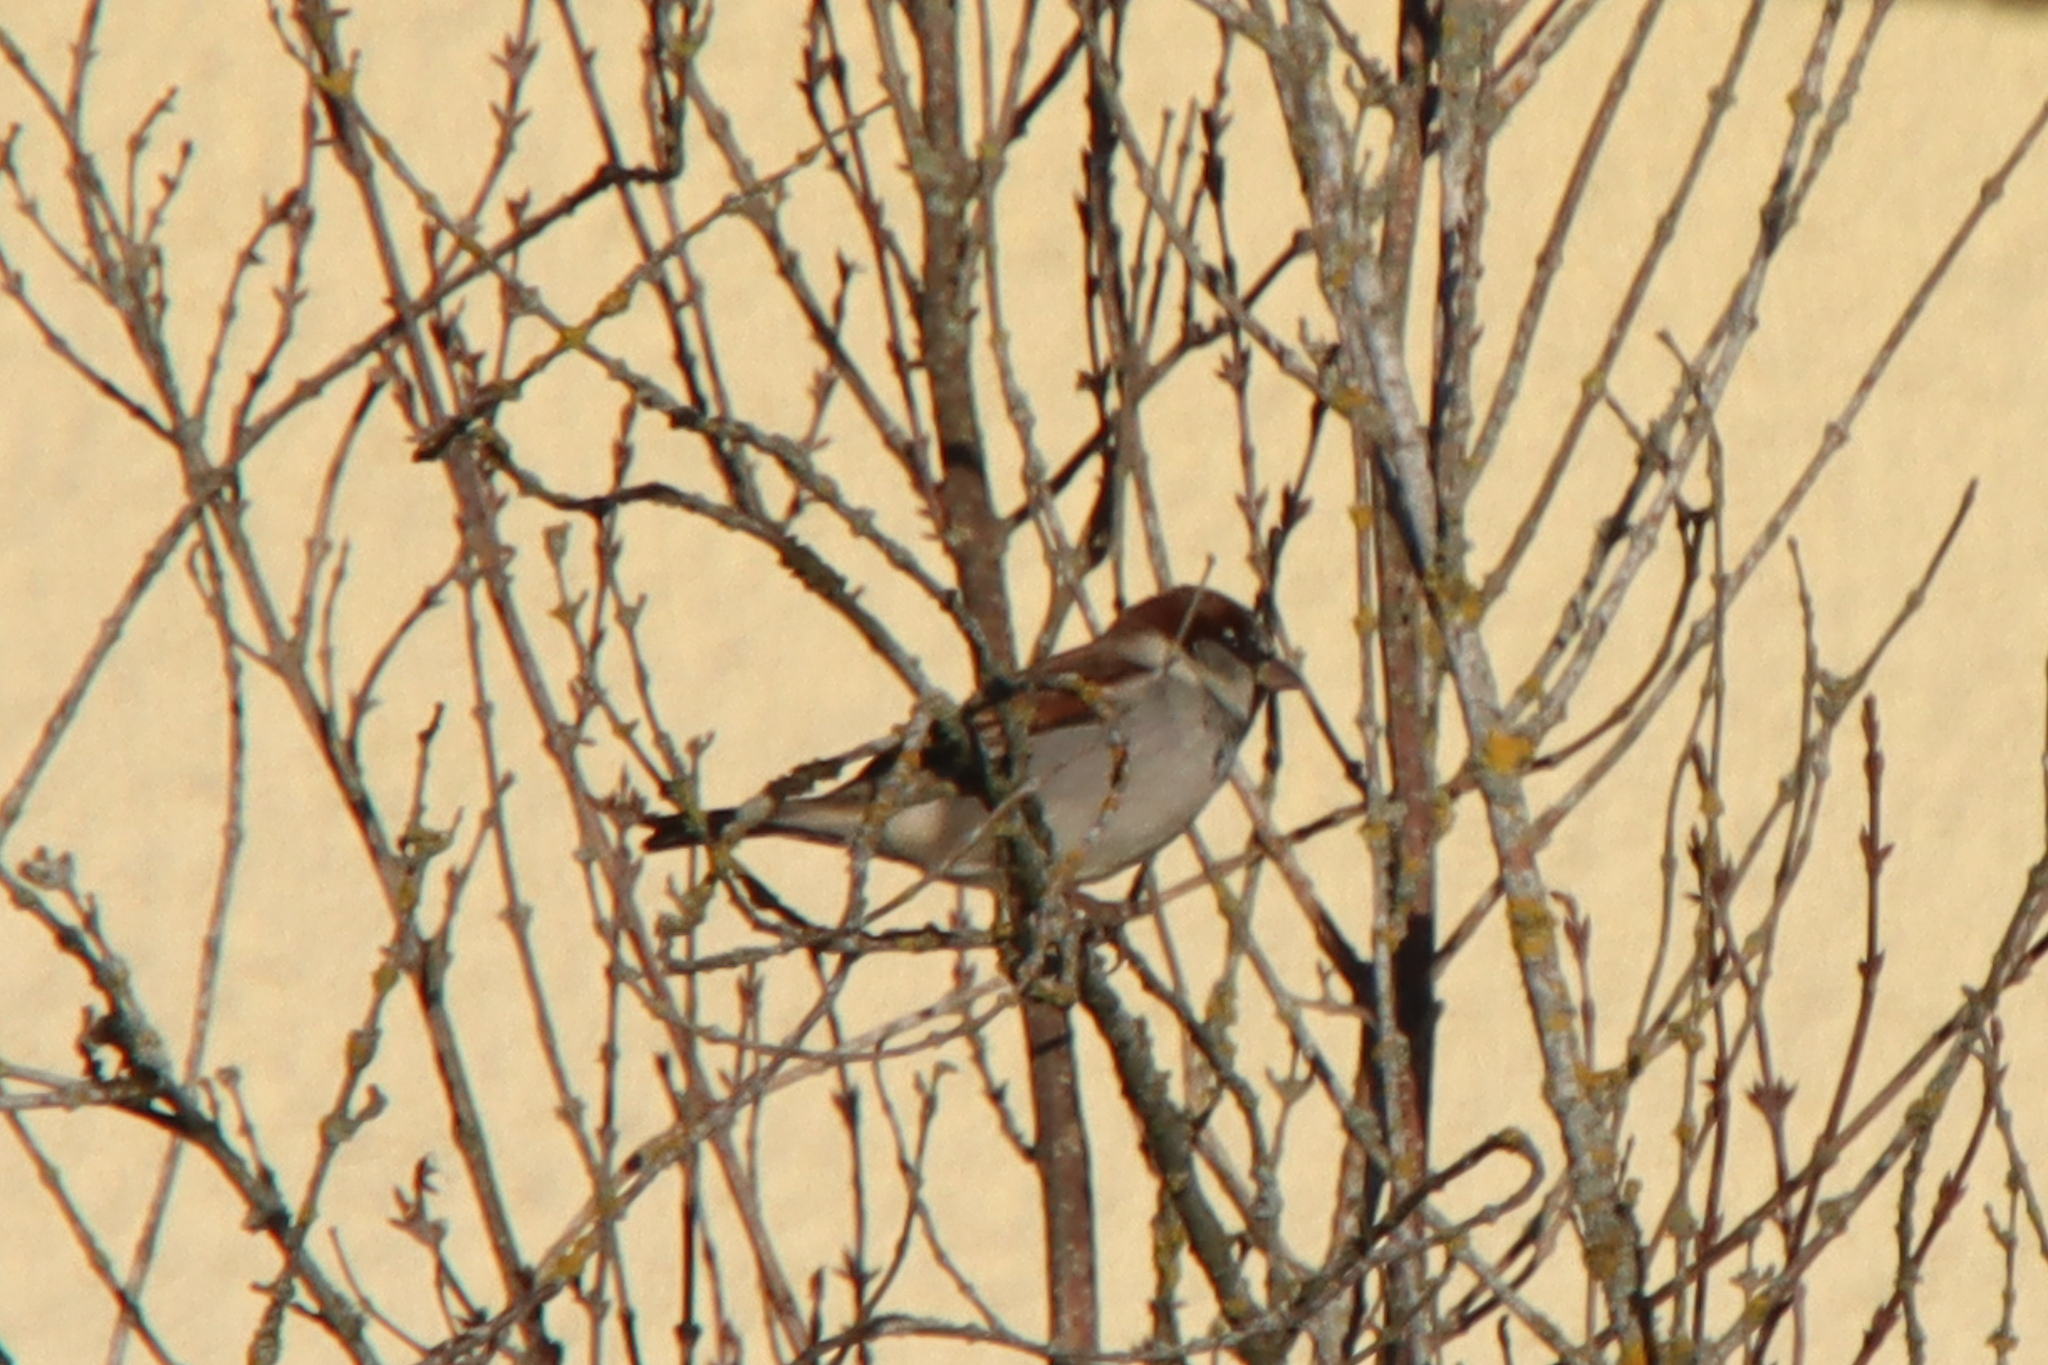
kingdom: Animalia
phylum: Chordata
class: Aves
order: Passeriformes
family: Passeridae
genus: Passer
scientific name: Passer domesticus
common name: House sparrow
